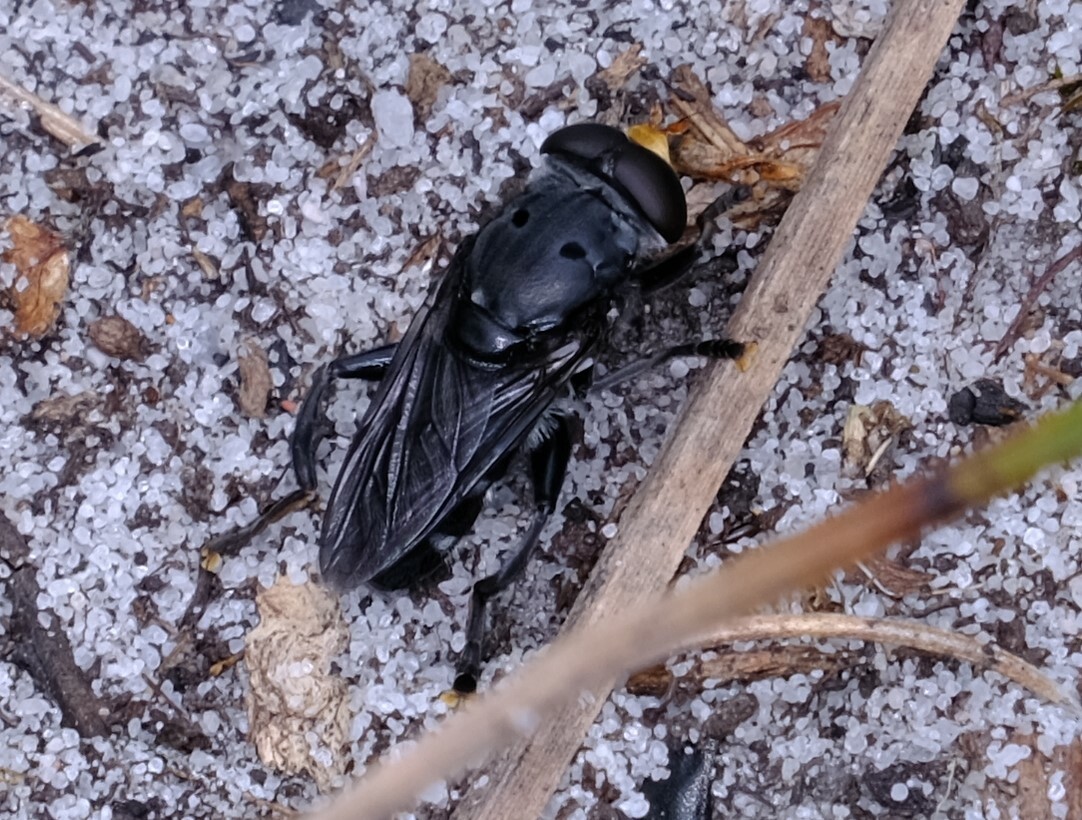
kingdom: Animalia
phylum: Arthropoda
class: Insecta
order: Diptera
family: Syrphidae
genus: Orthoprosopa
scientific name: Orthoprosopa grisea
